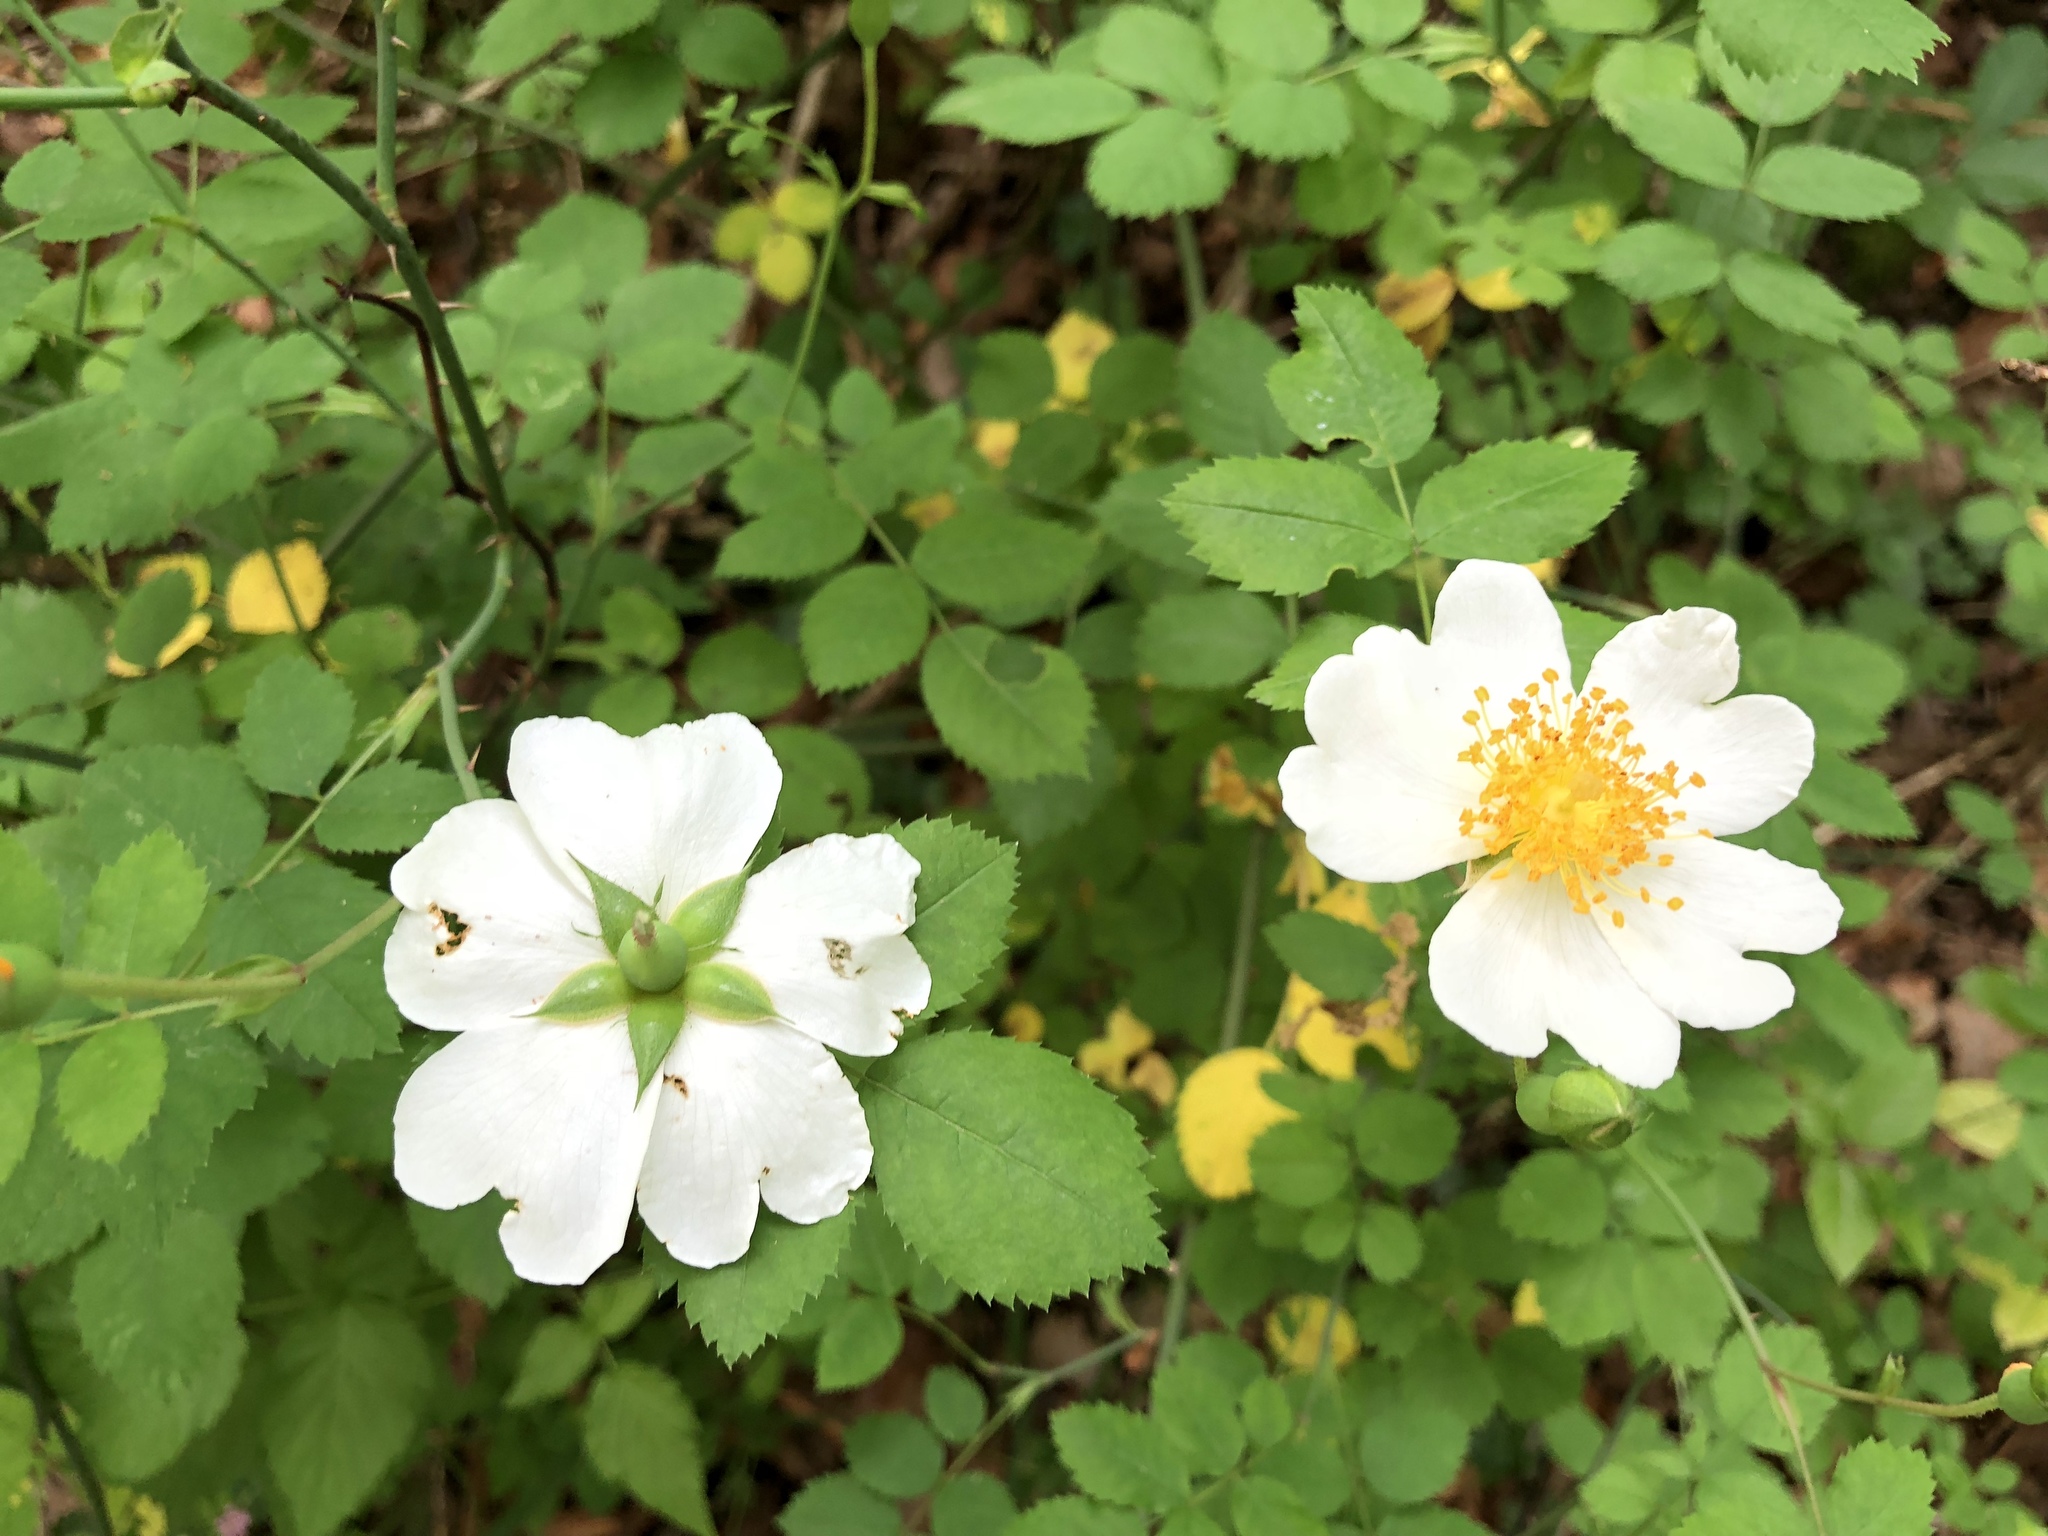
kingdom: Plantae
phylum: Tracheophyta
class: Magnoliopsida
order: Rosales
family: Rosaceae
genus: Rosa
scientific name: Rosa arvensis
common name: Field rose
